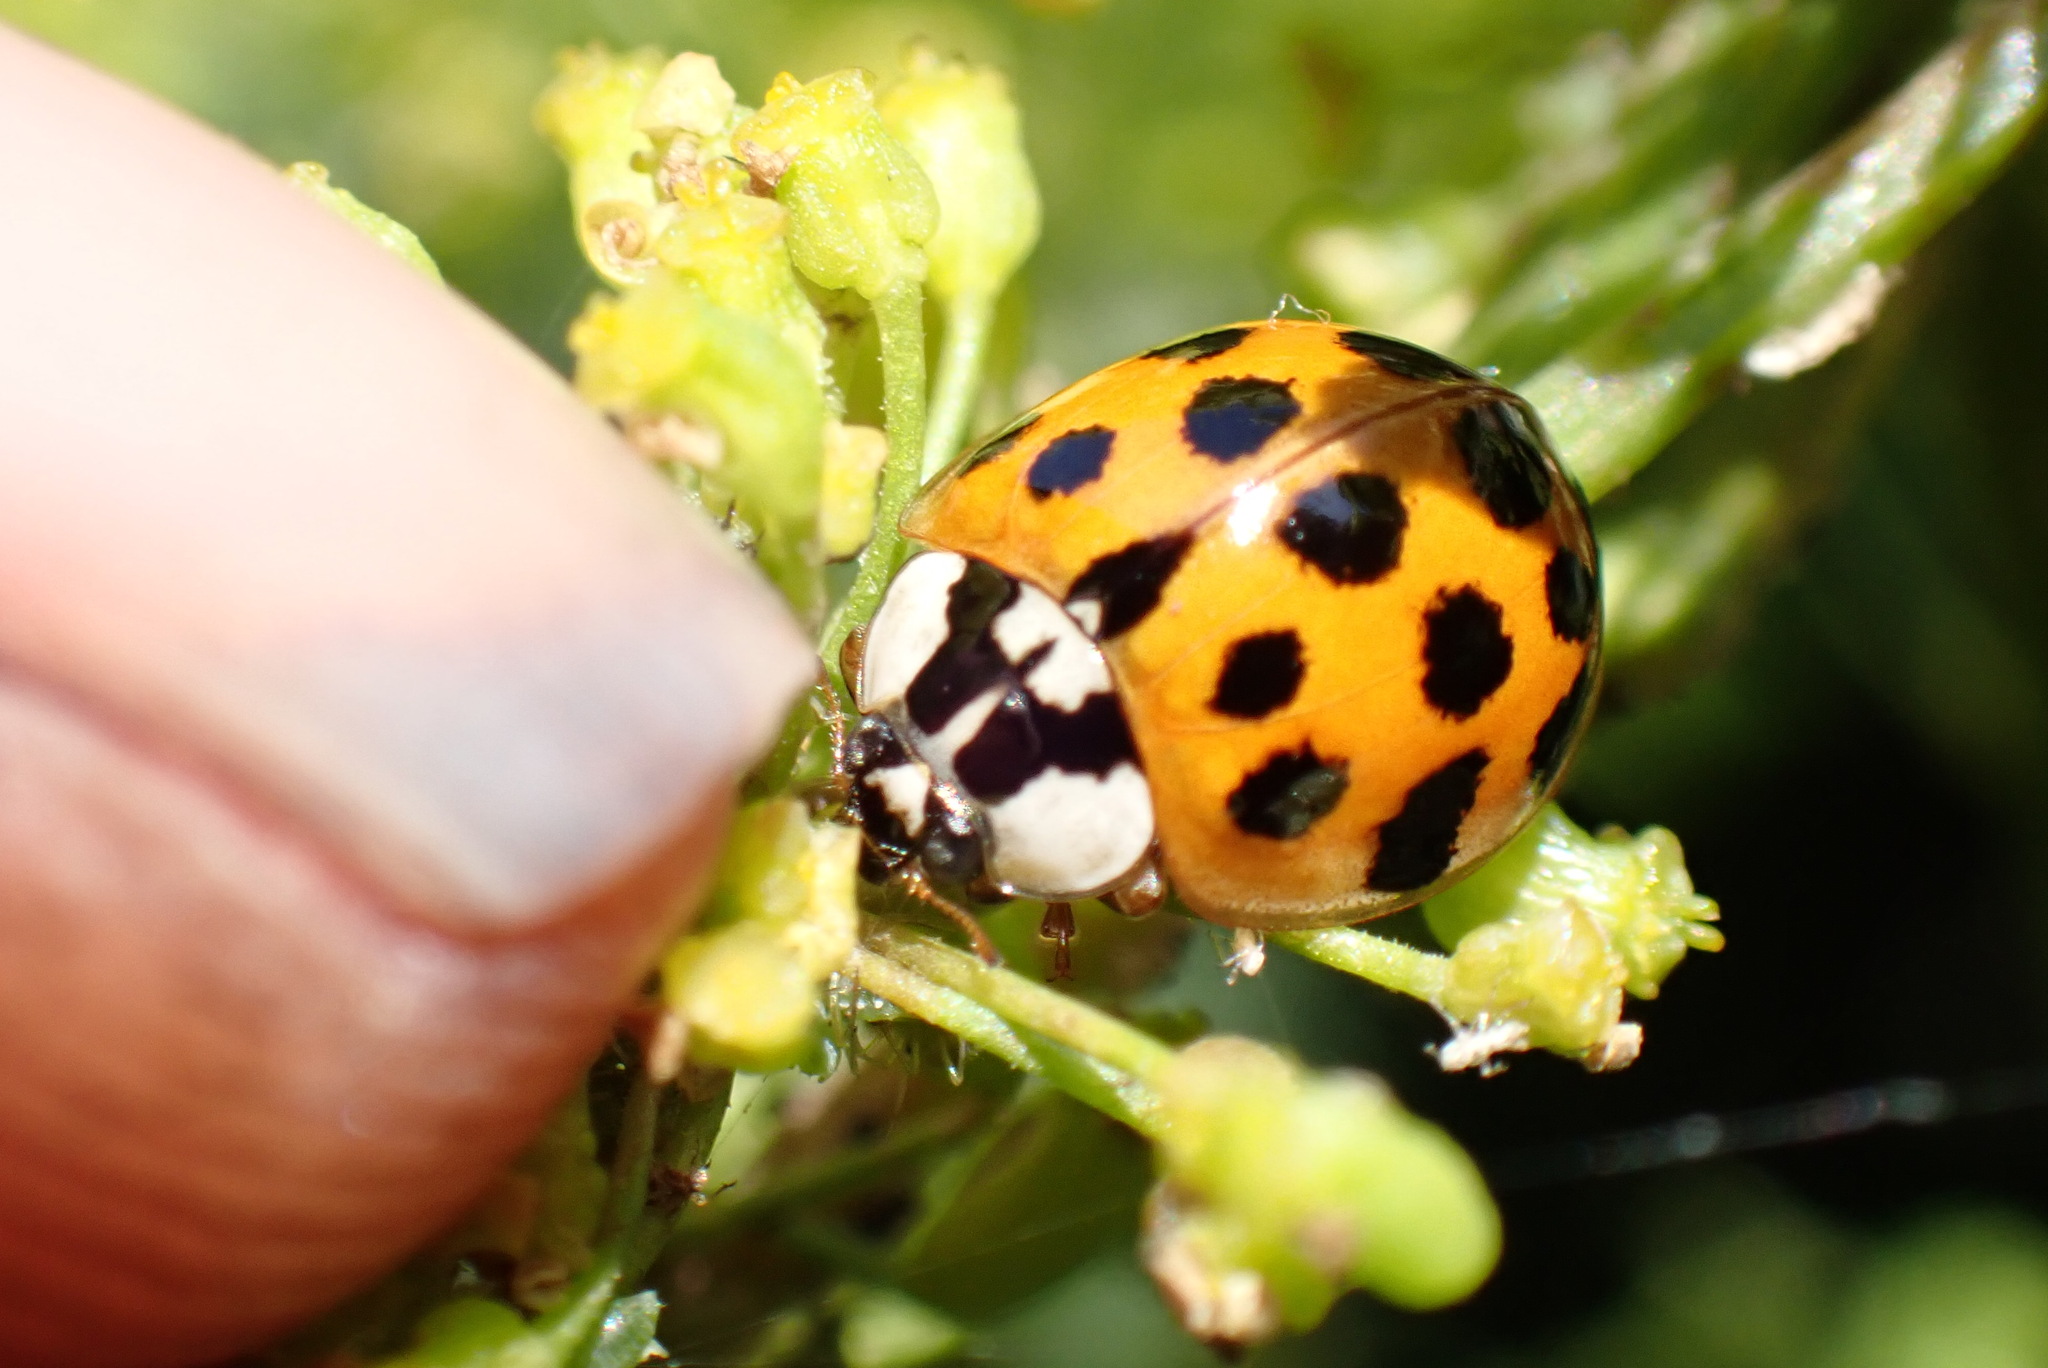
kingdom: Animalia
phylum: Arthropoda
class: Insecta
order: Coleoptera
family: Coccinellidae
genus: Harmonia
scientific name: Harmonia axyridis
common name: Harlequin ladybird
